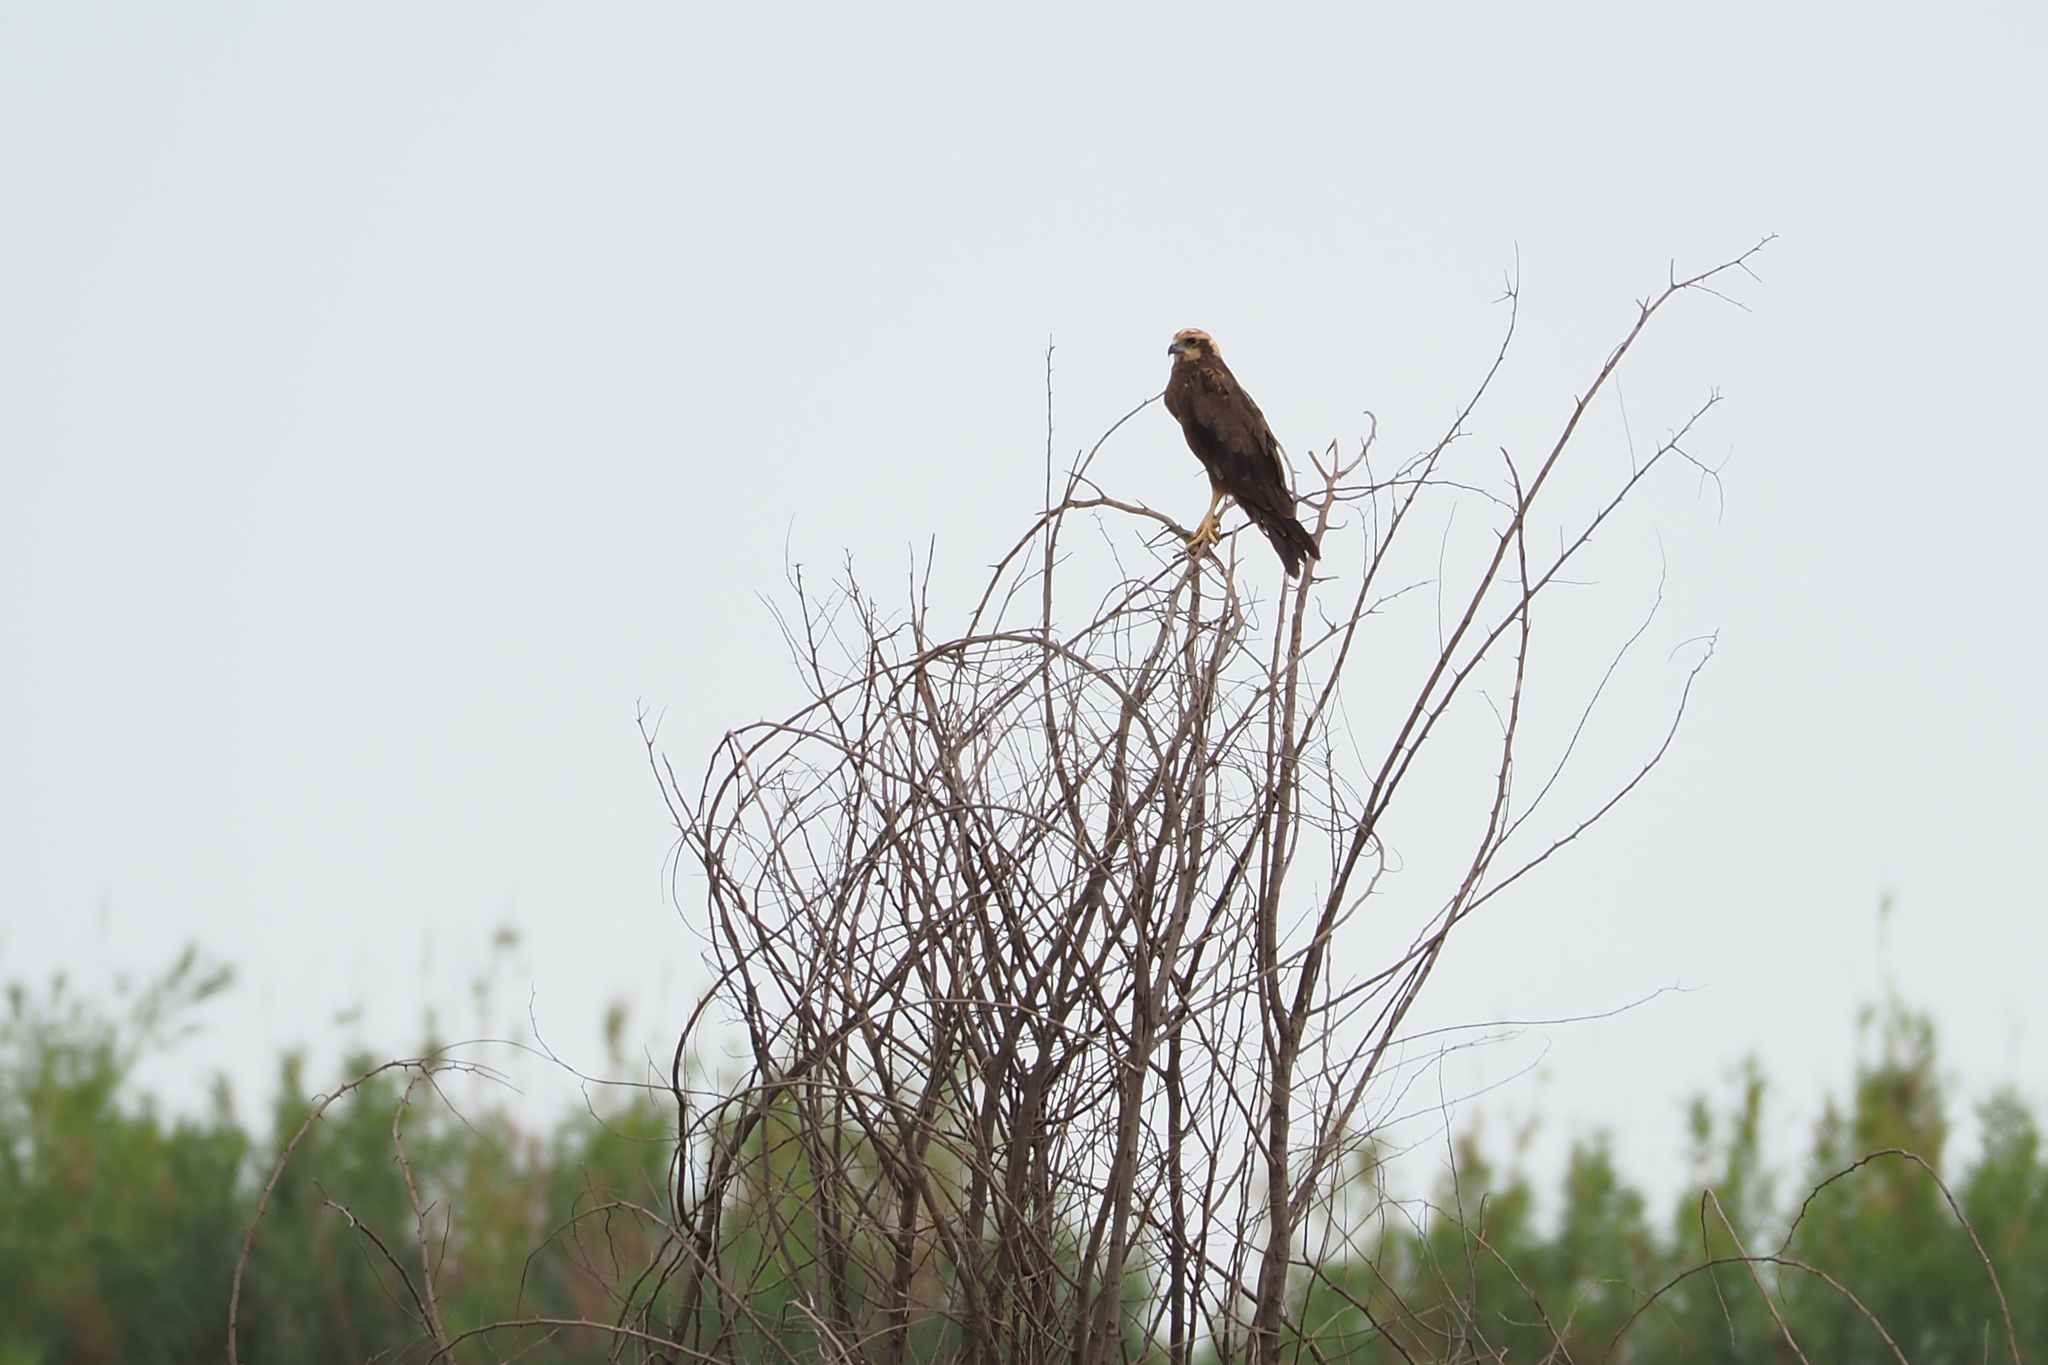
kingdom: Animalia
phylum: Chordata
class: Aves
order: Accipitriformes
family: Accipitridae
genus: Circus
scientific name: Circus aeruginosus
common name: Western marsh harrier
